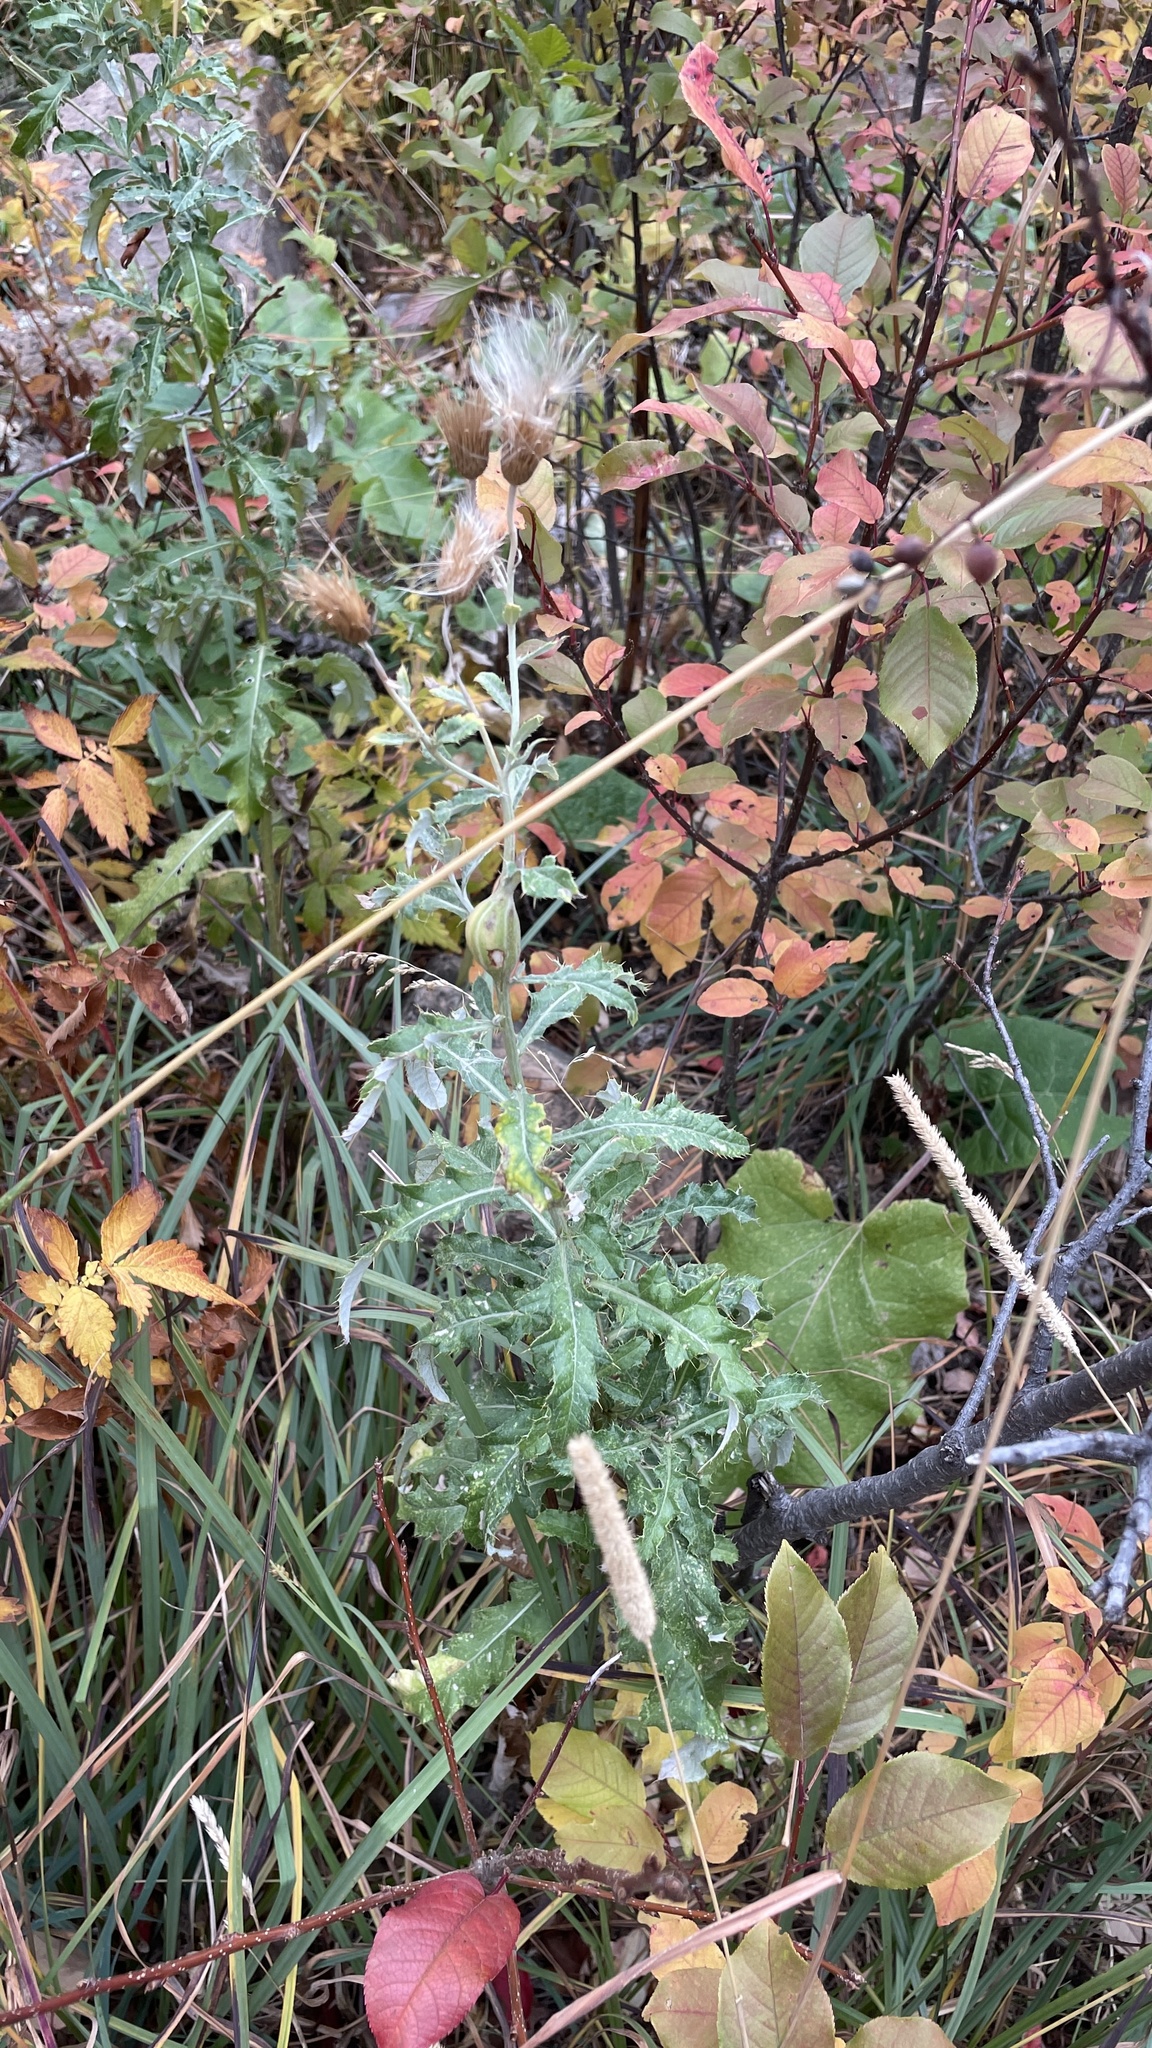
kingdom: Plantae
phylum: Tracheophyta
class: Magnoliopsida
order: Asterales
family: Asteraceae
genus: Cirsium
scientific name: Cirsium arvense
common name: Creeping thistle
